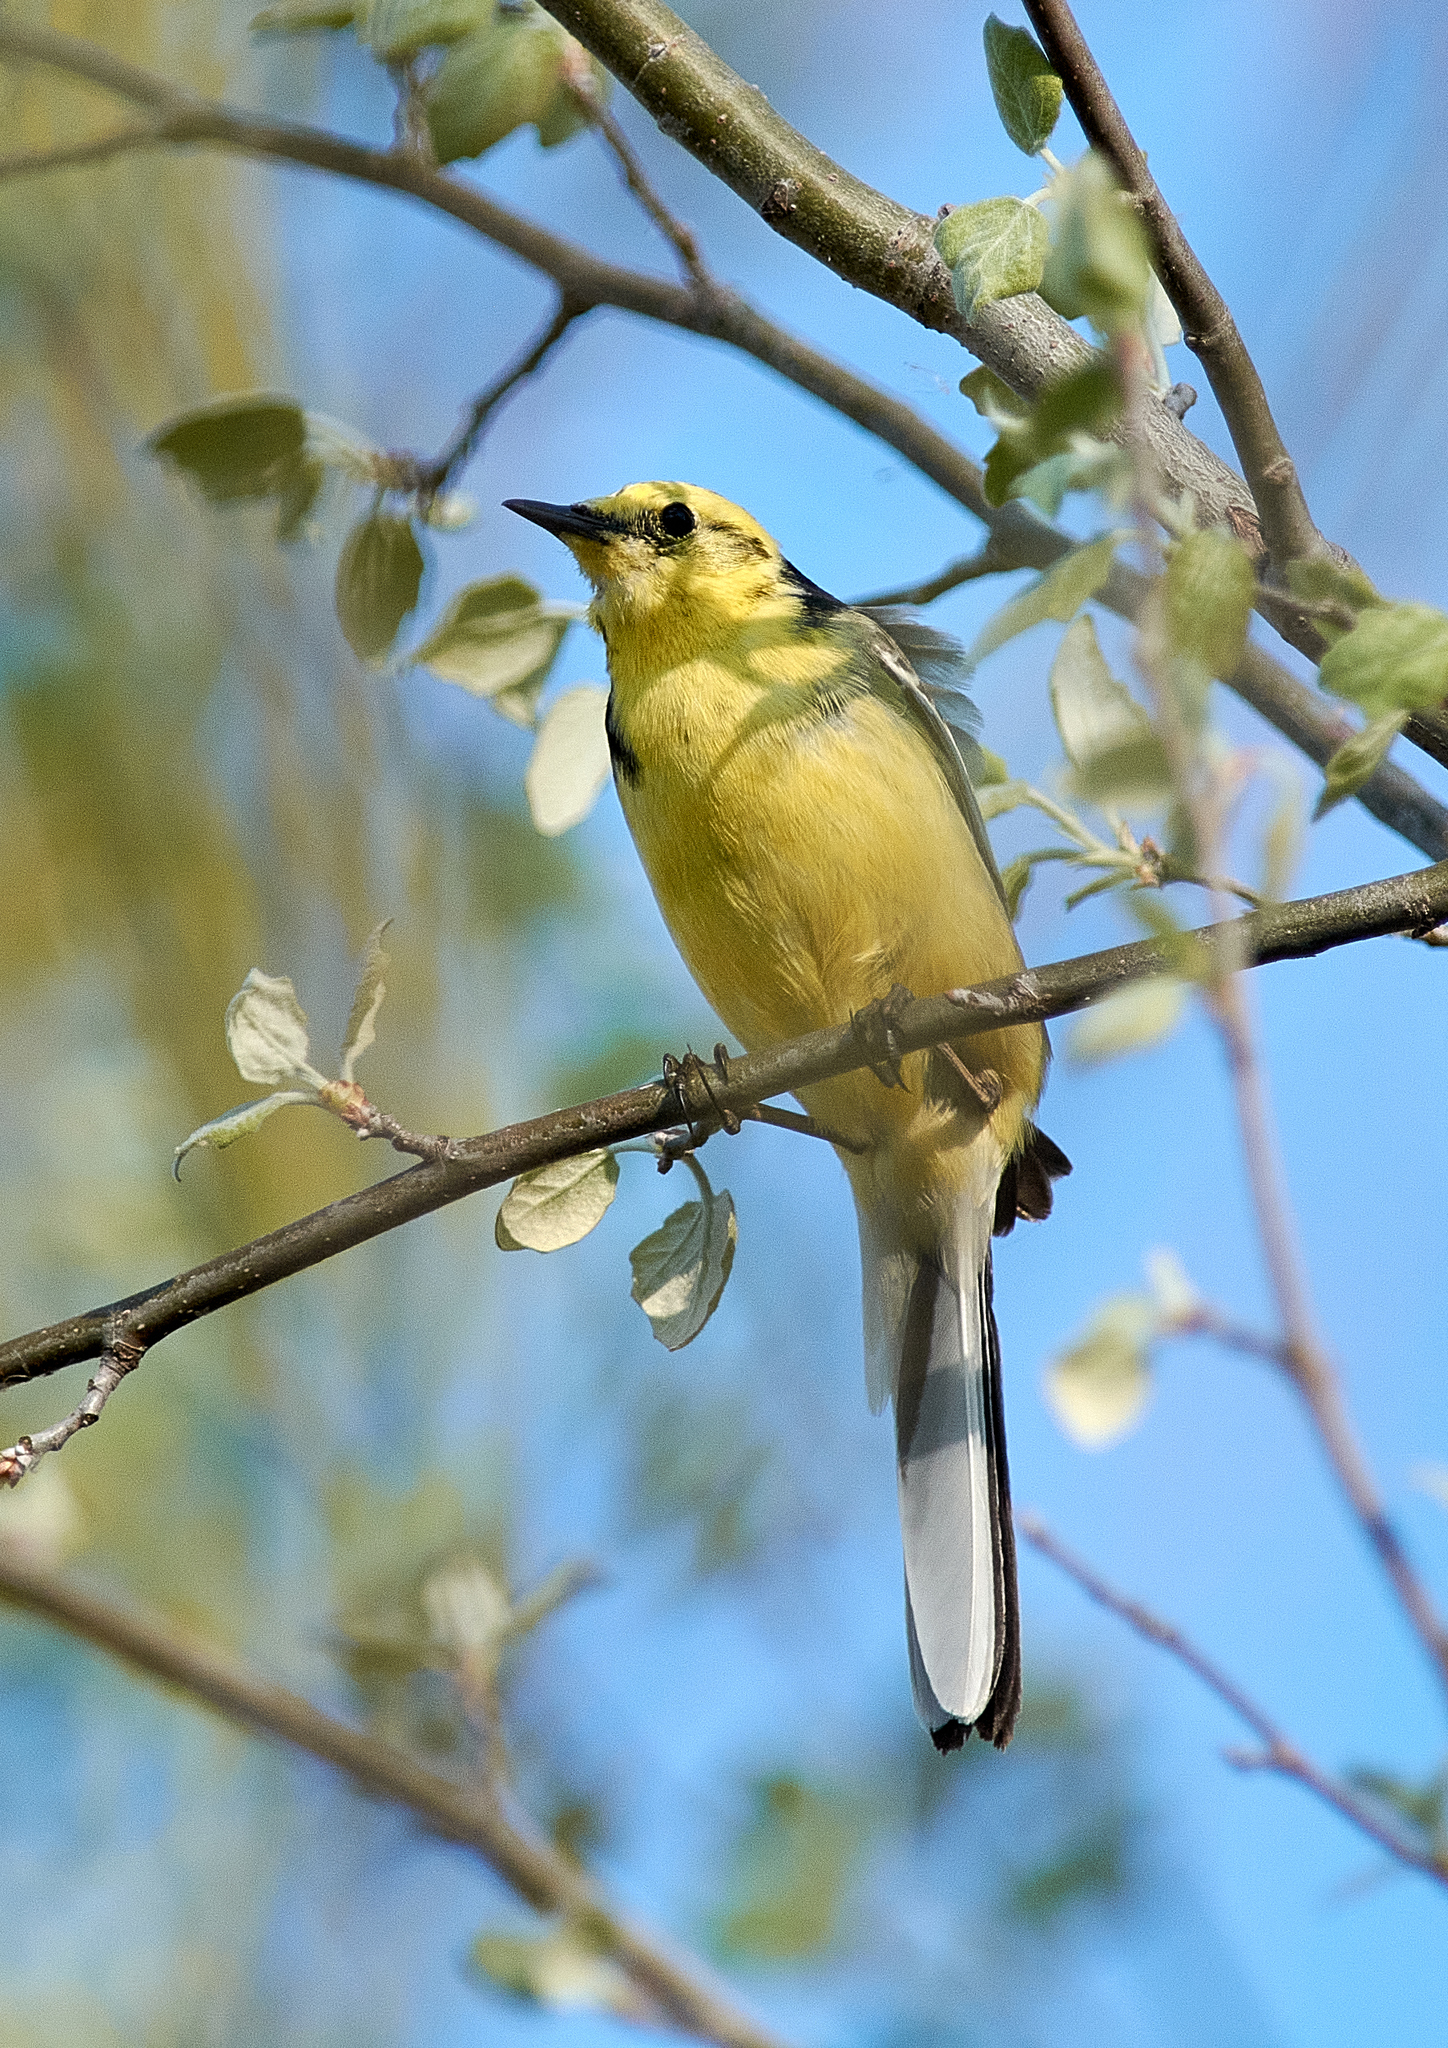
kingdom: Animalia
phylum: Chordata
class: Aves
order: Passeriformes
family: Motacillidae
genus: Motacilla
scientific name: Motacilla citreola
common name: Citrine wagtail
